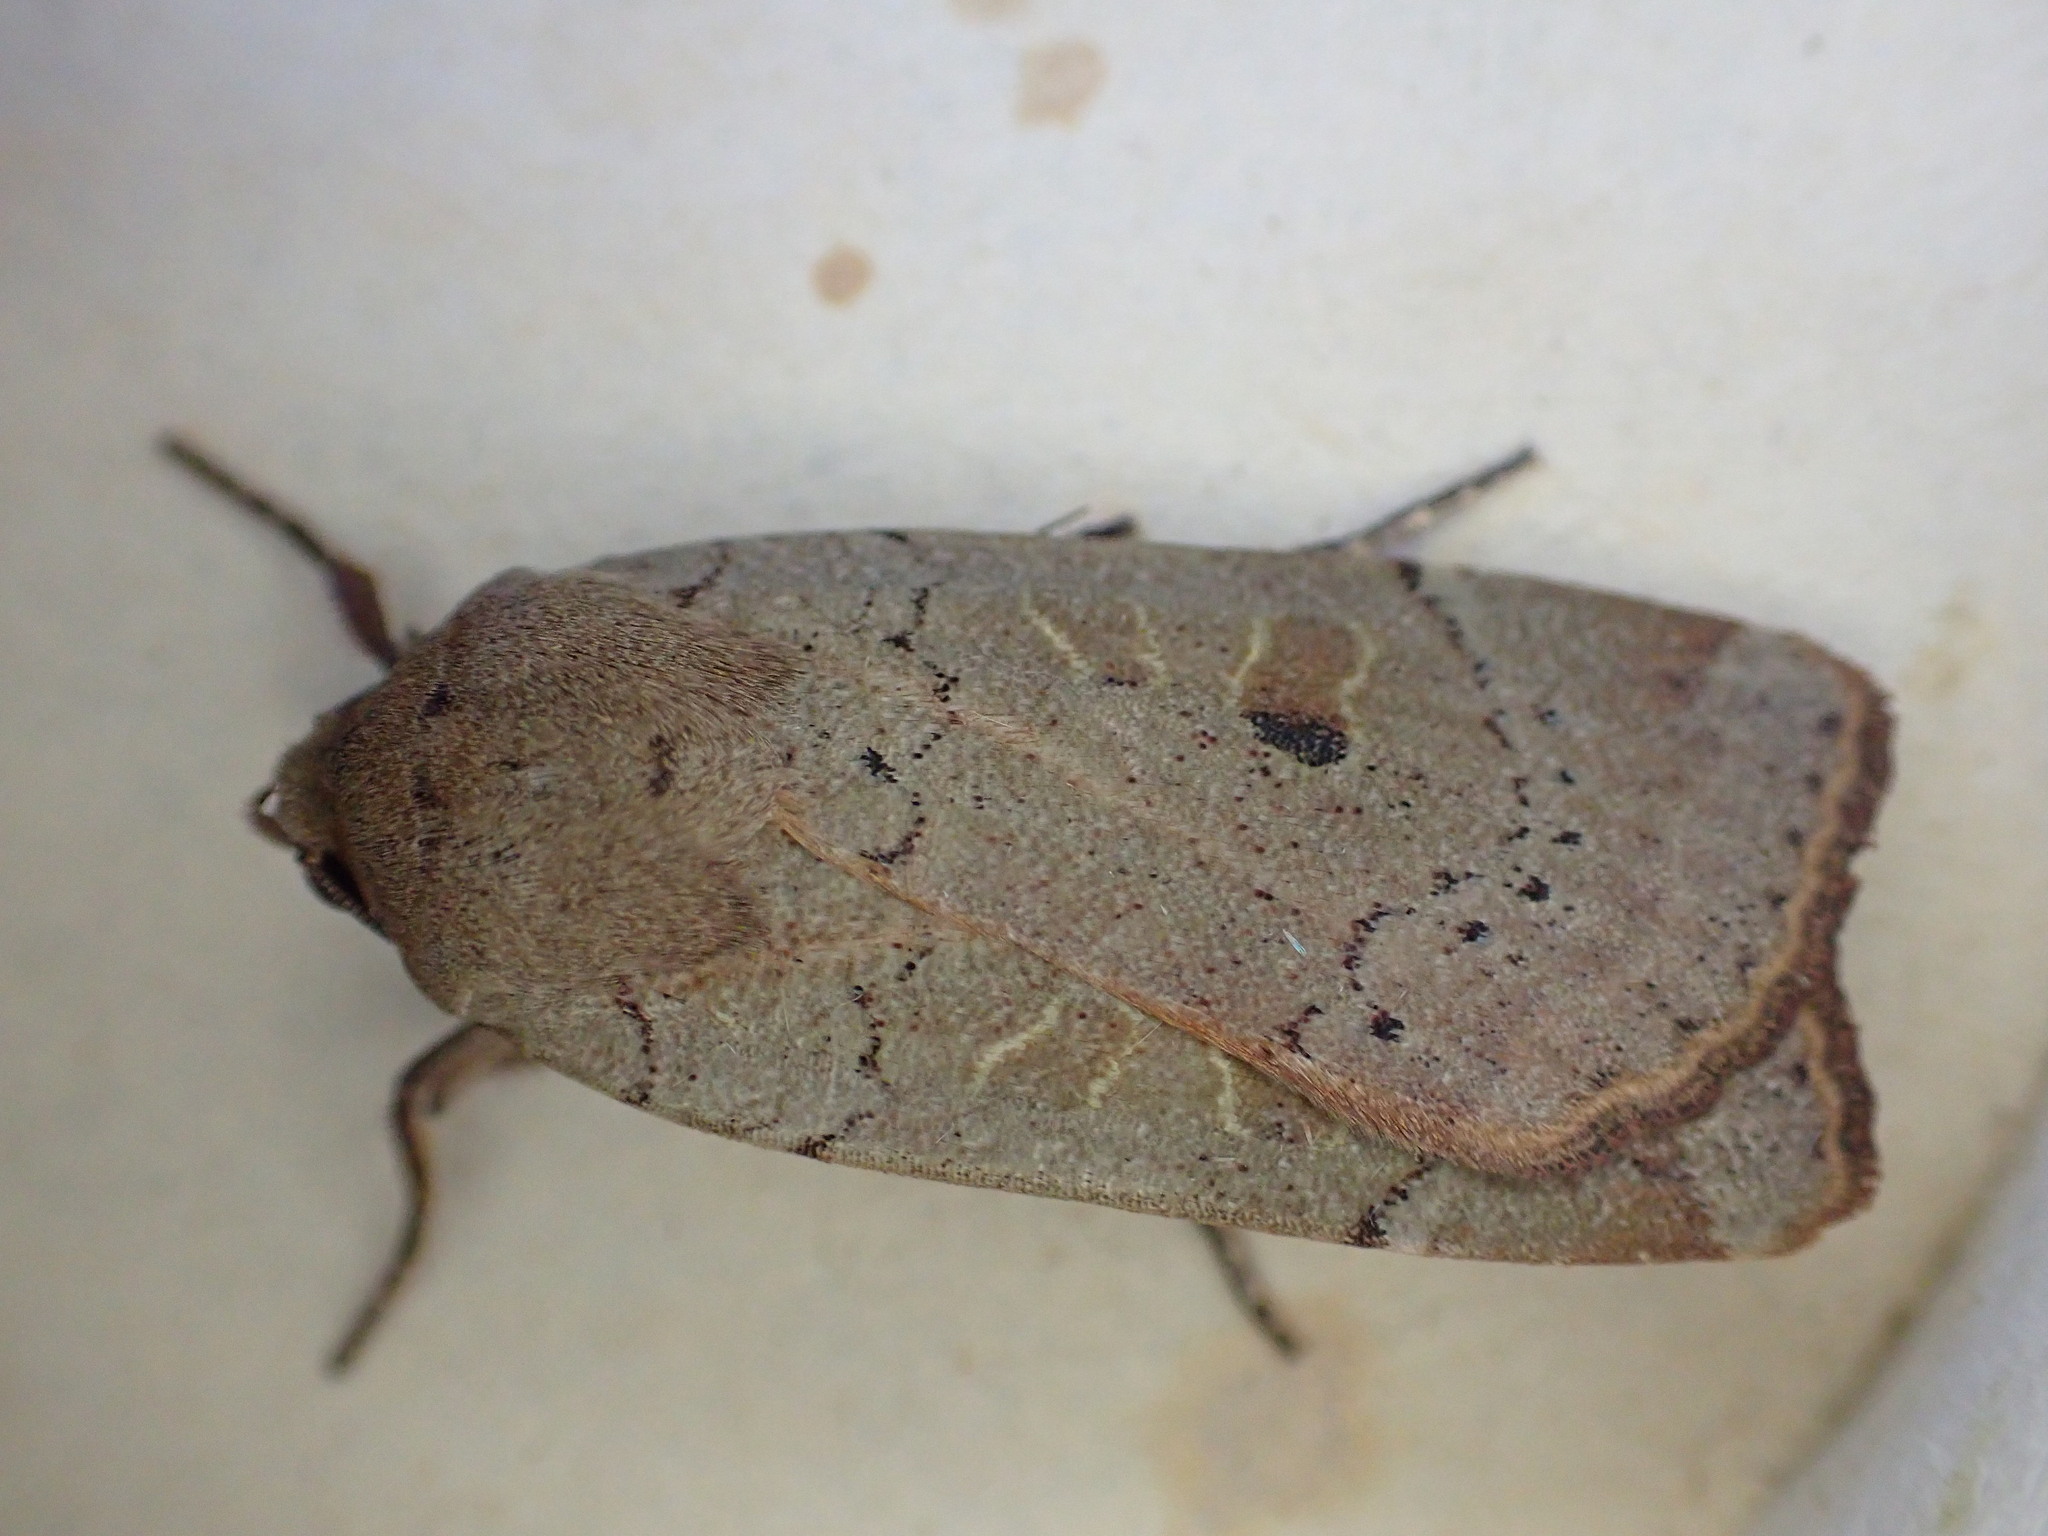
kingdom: Animalia
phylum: Arthropoda
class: Insecta
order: Lepidoptera
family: Noctuidae
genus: Noctua
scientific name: Noctua comes
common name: Lesser yellow underwing
